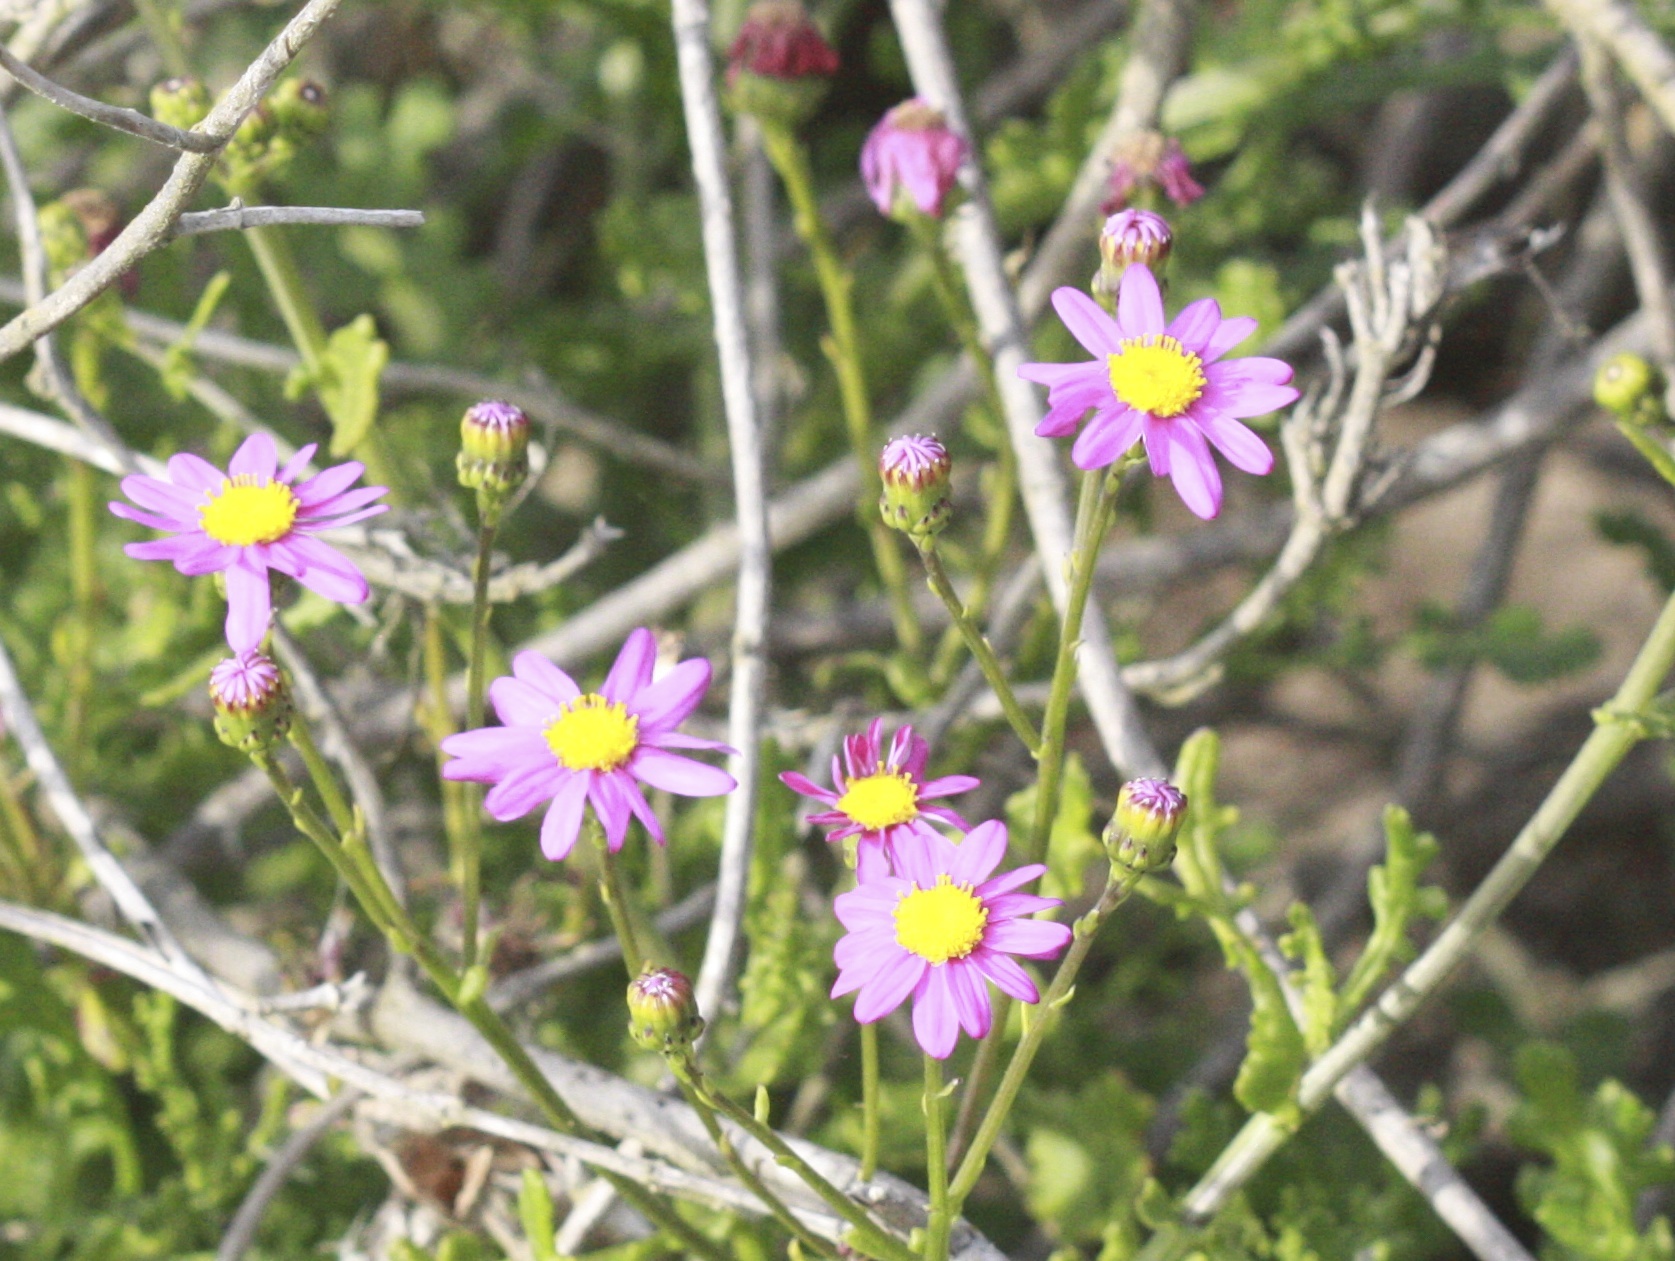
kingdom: Plantae
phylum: Tracheophyta
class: Magnoliopsida
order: Asterales
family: Asteraceae
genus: Senecio
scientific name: Senecio elegans
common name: Purple groundsel
